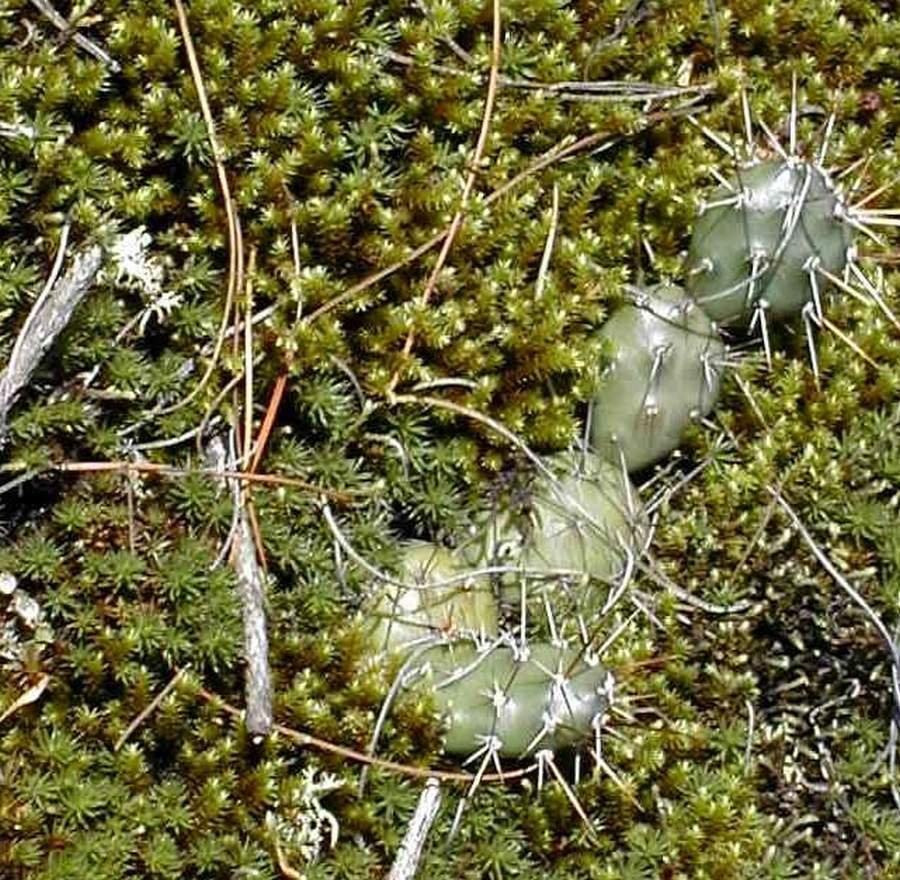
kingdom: Plantae
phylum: Tracheophyta
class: Magnoliopsida
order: Caryophyllales
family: Cactaceae
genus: Opuntia
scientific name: Opuntia fragilis
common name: Brittle cactus
